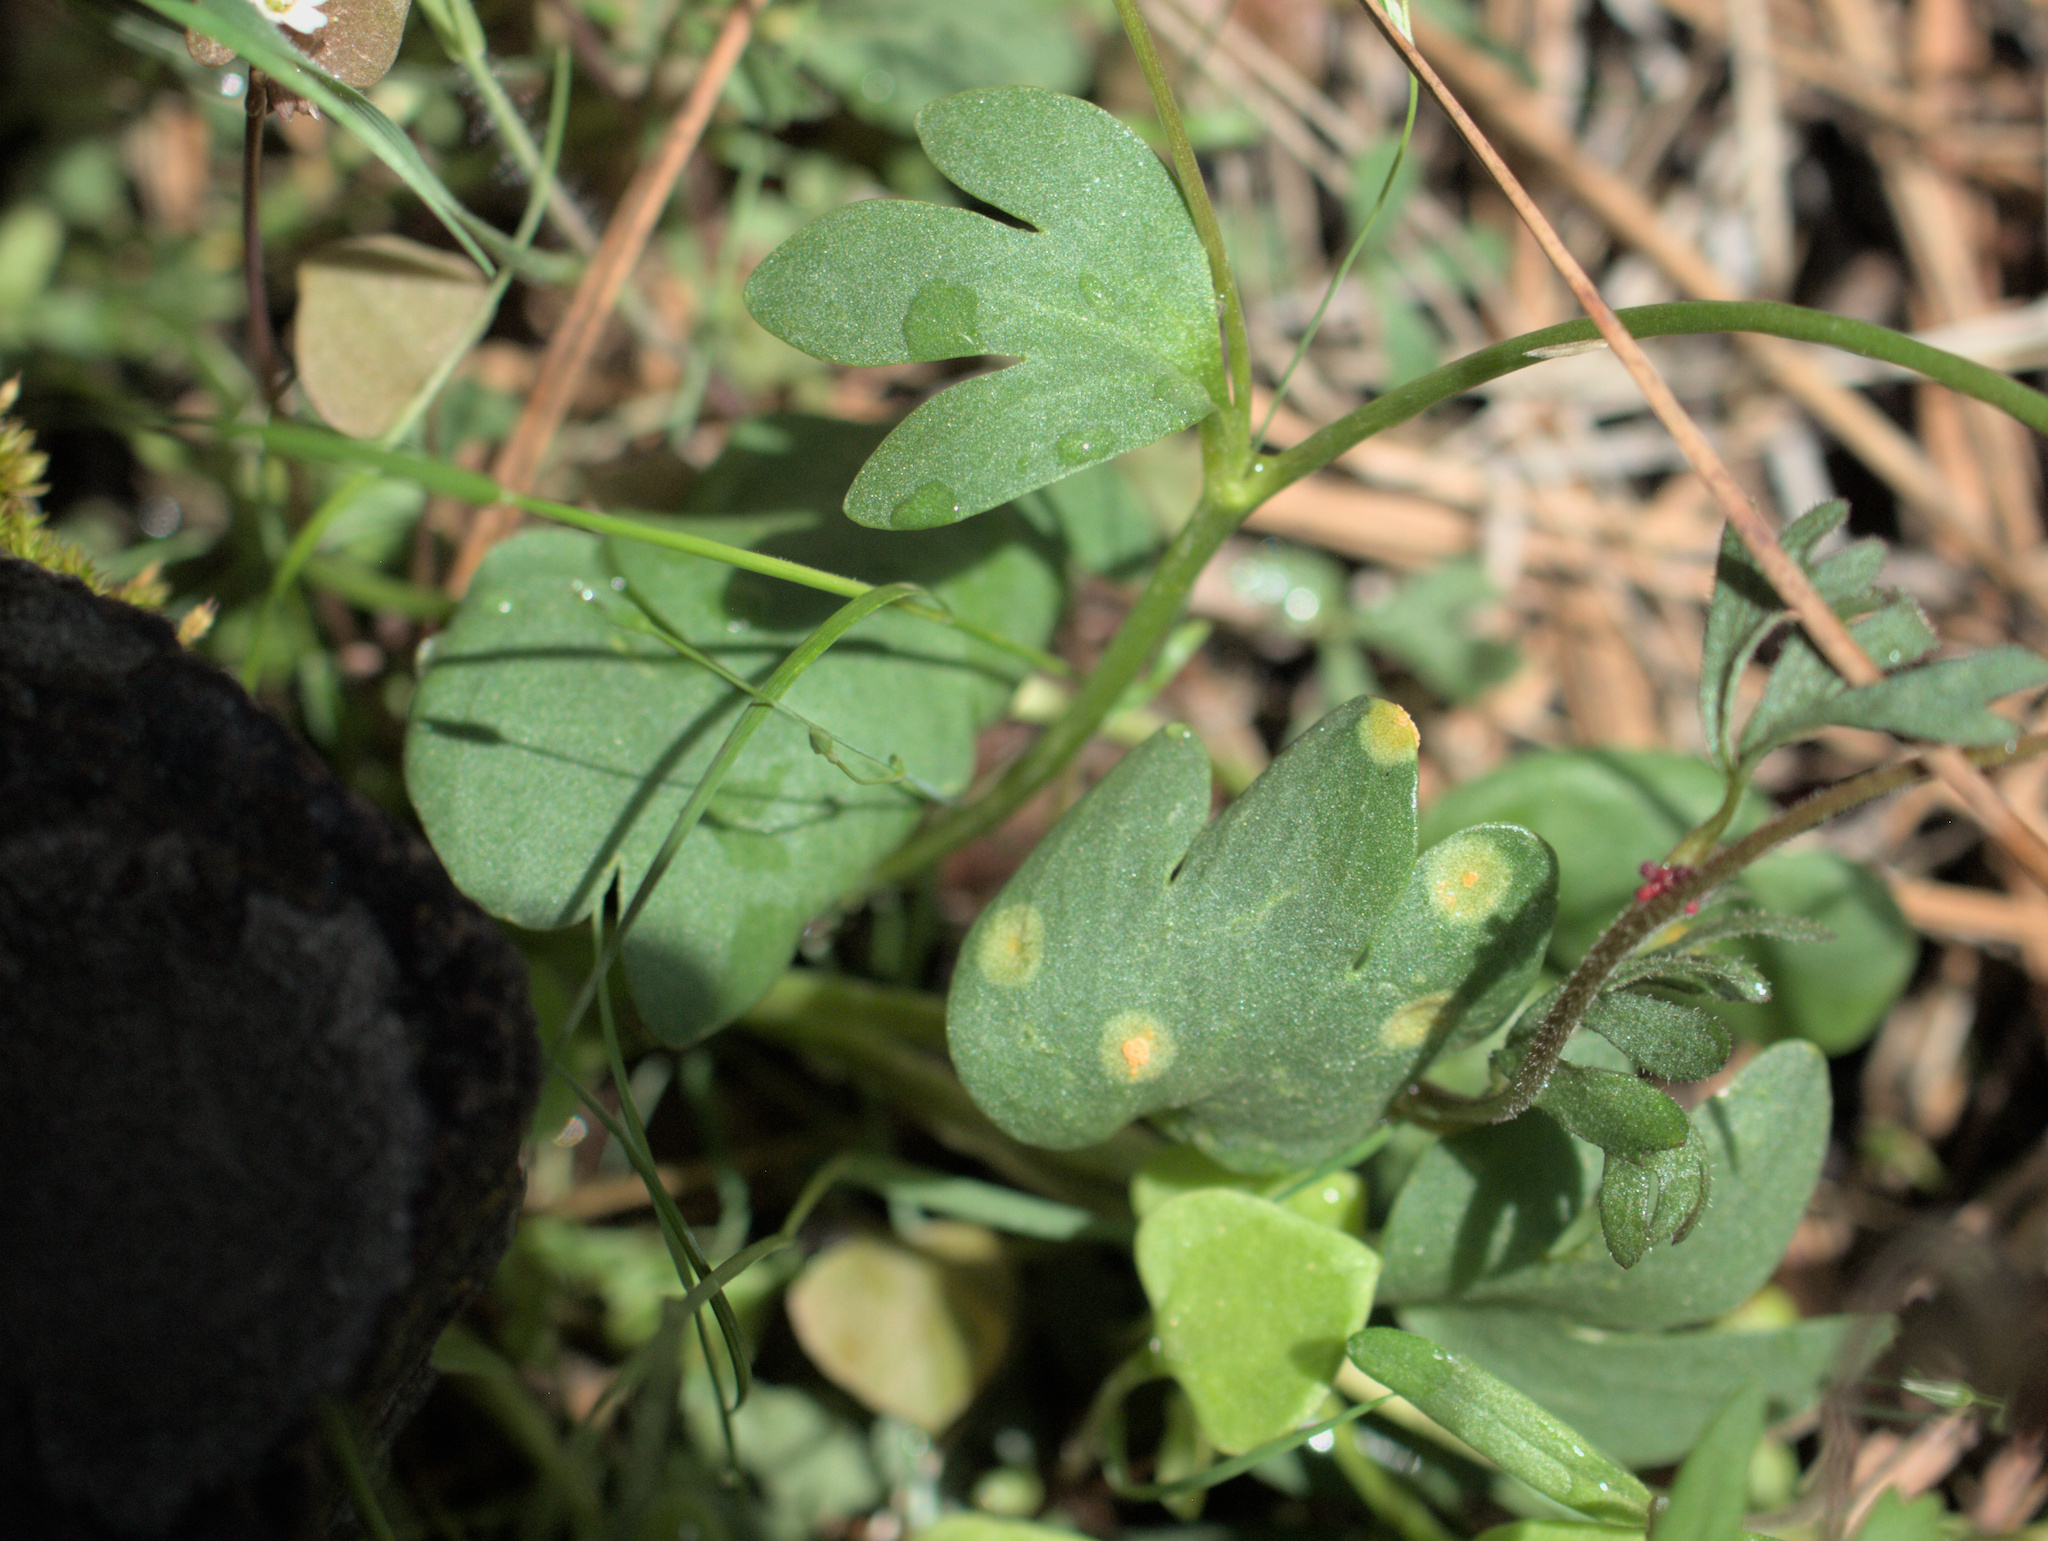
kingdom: Plantae
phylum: Tracheophyta
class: Magnoliopsida
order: Ranunculales
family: Ranunculaceae
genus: Ranunculus
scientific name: Ranunculus glaberrimus
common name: Sagebrush buttercup
